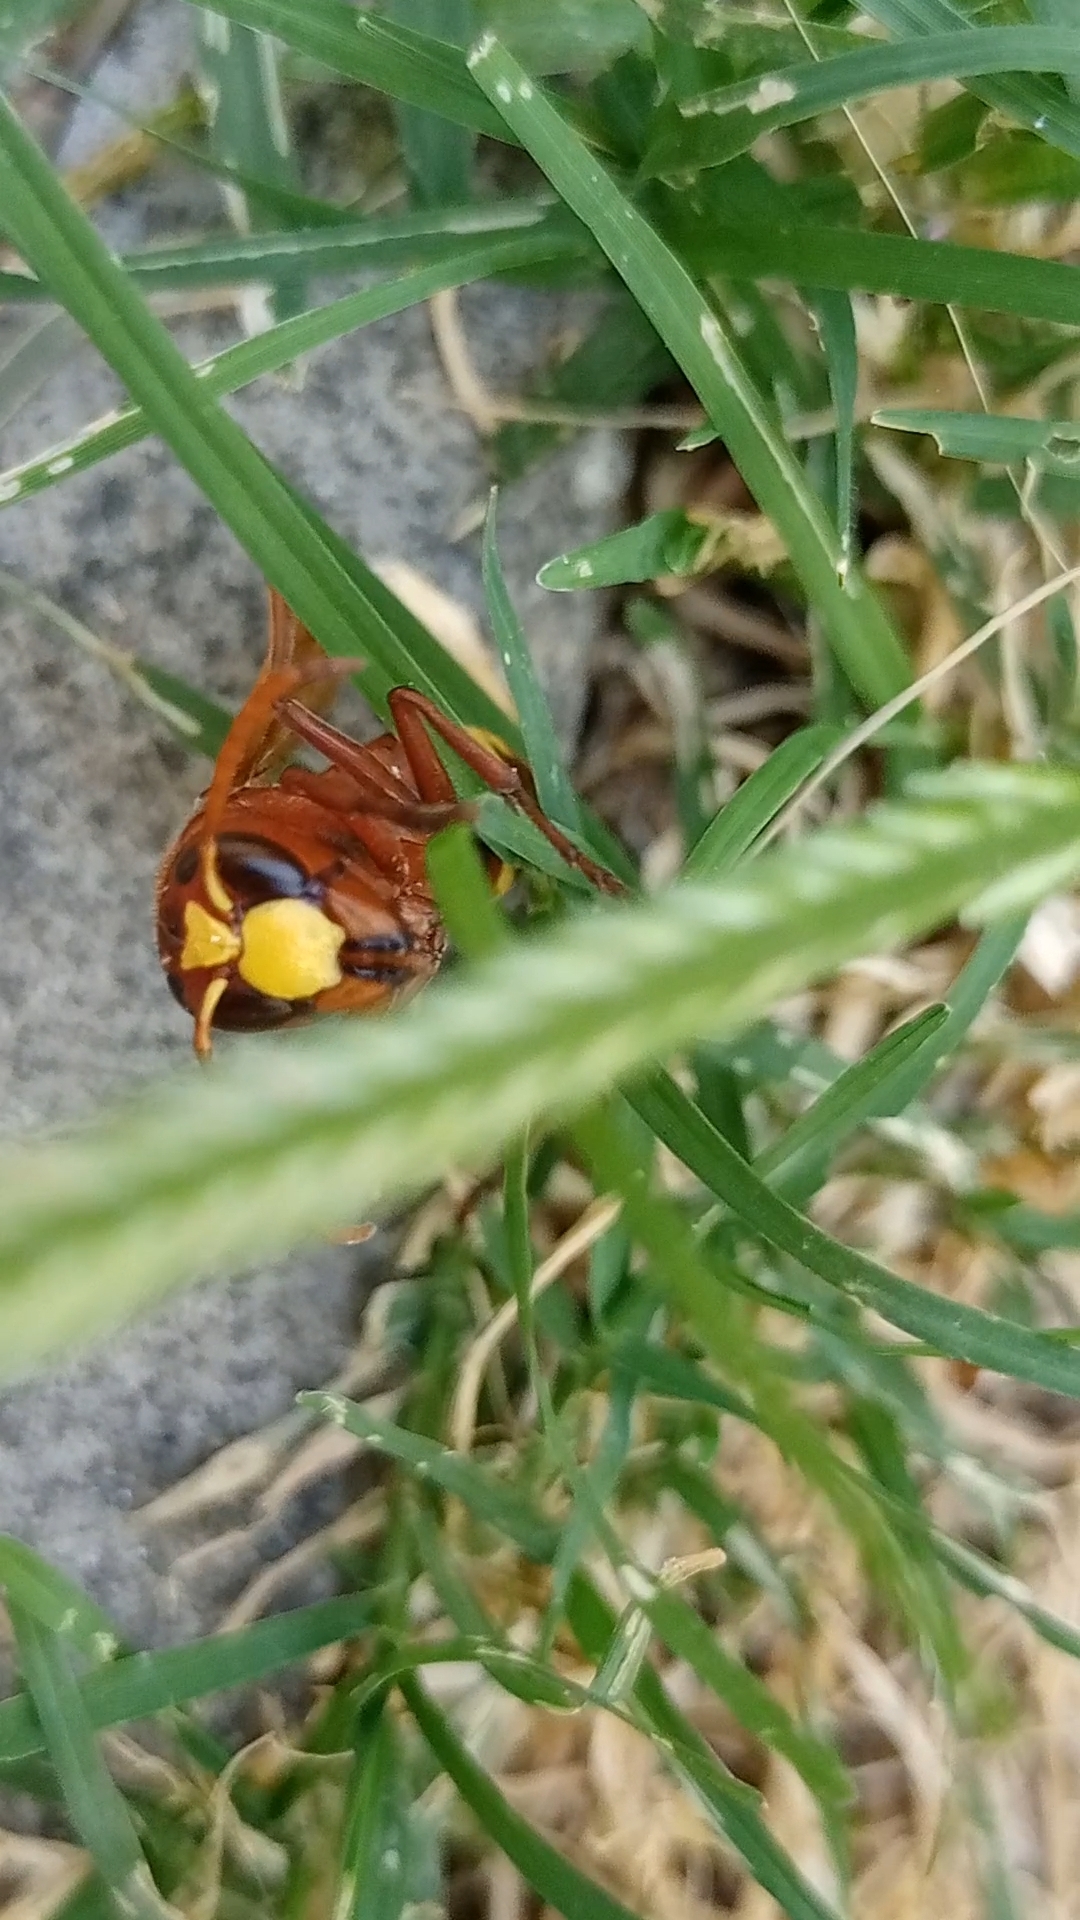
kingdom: Animalia
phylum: Arthropoda
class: Insecta
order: Hymenoptera
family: Vespidae
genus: Vespa
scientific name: Vespa orientalis
